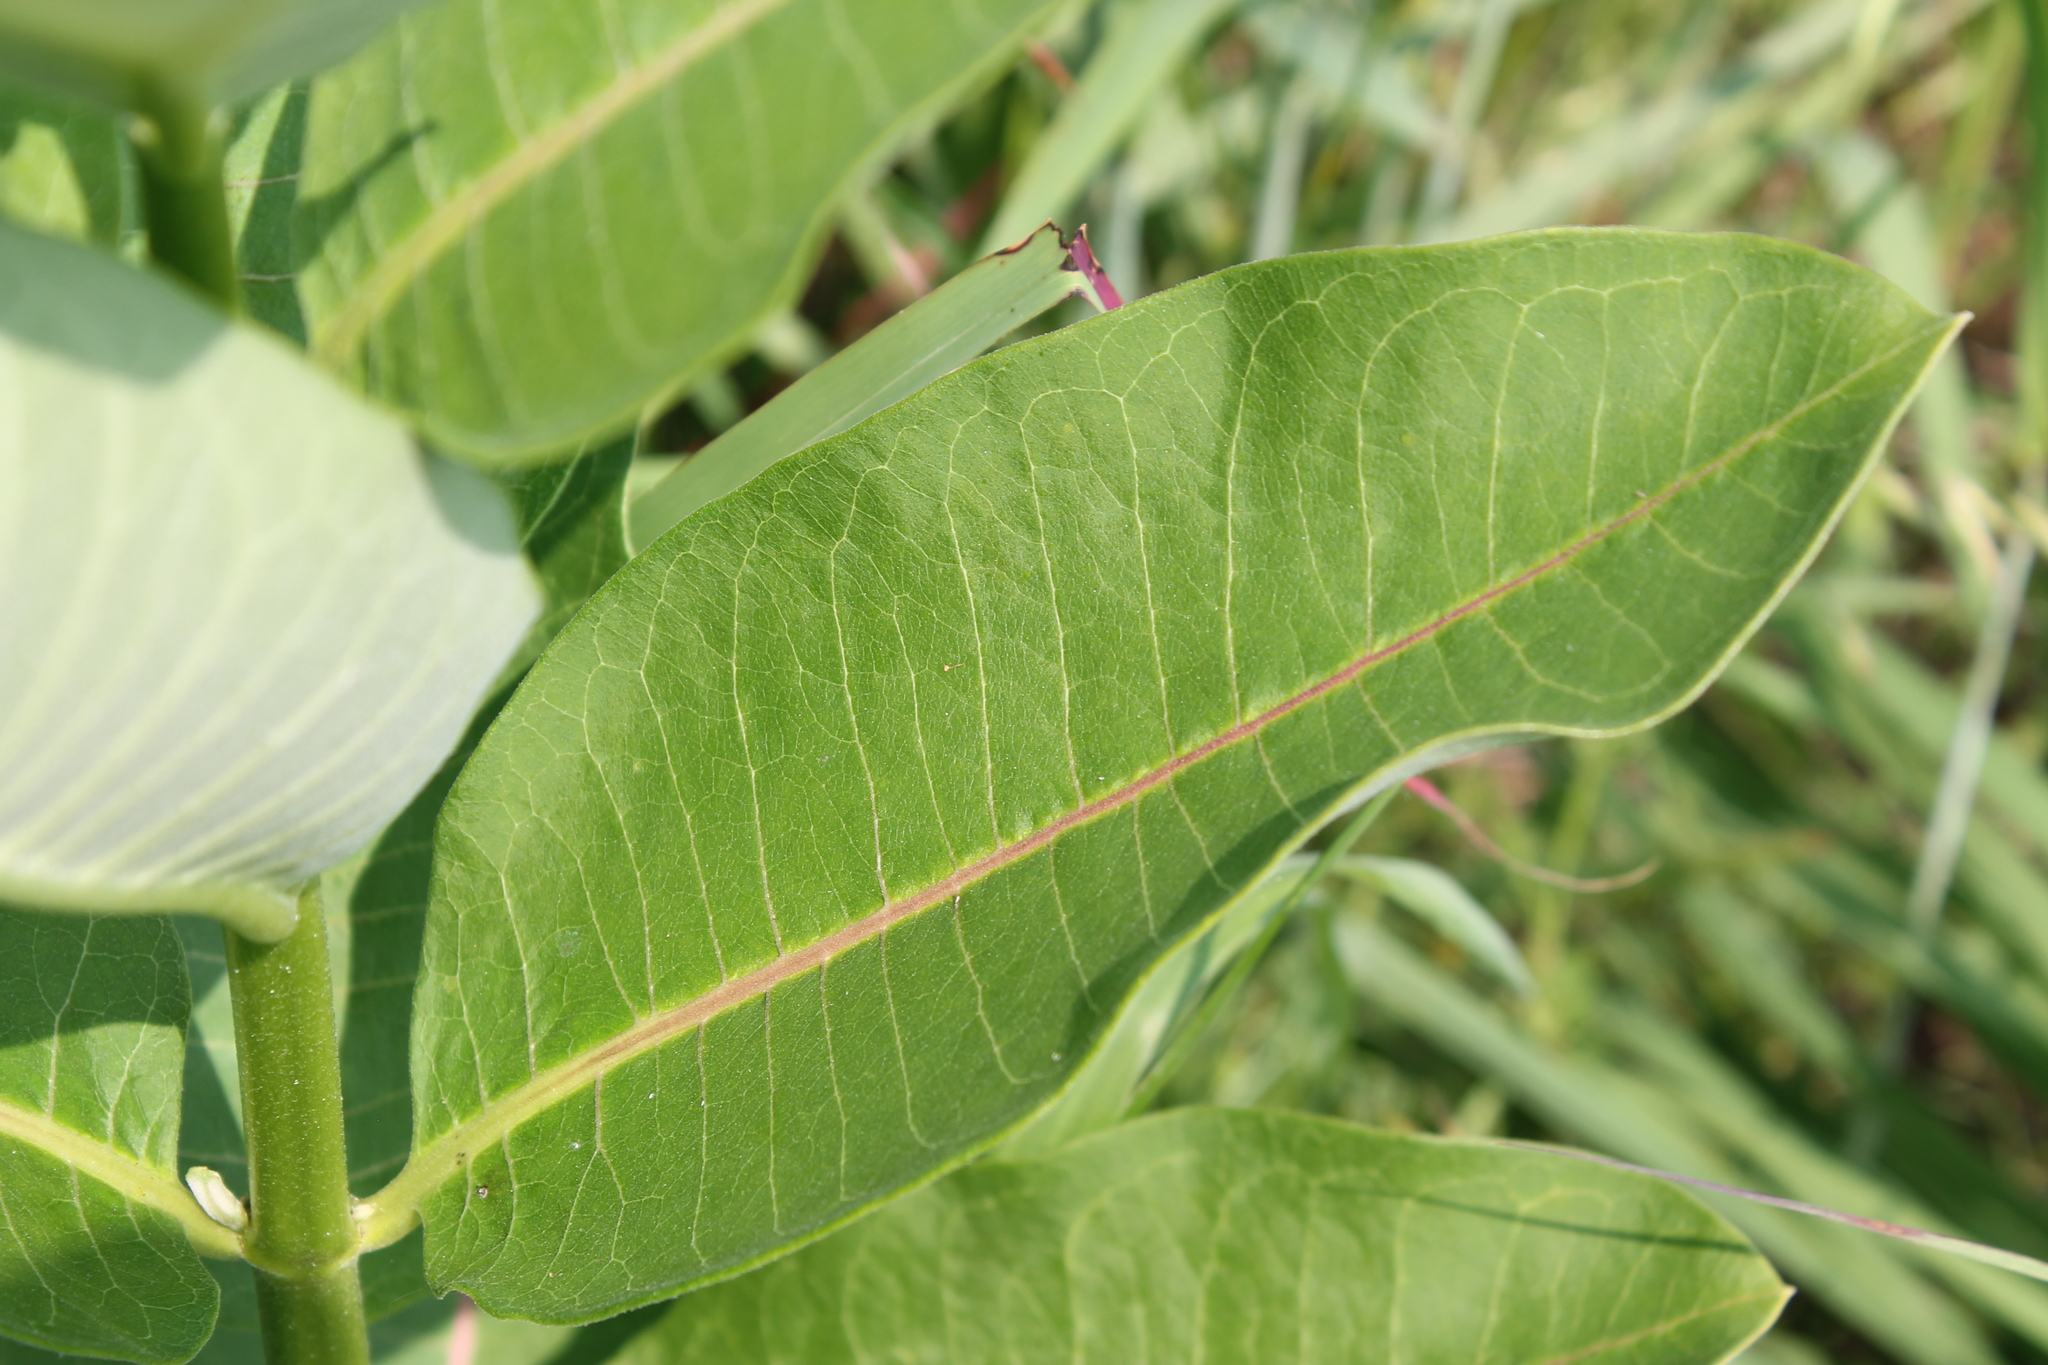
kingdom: Plantae
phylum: Tracheophyta
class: Magnoliopsida
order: Gentianales
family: Apocynaceae
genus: Asclepias
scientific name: Asclepias syriaca
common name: Common milkweed
